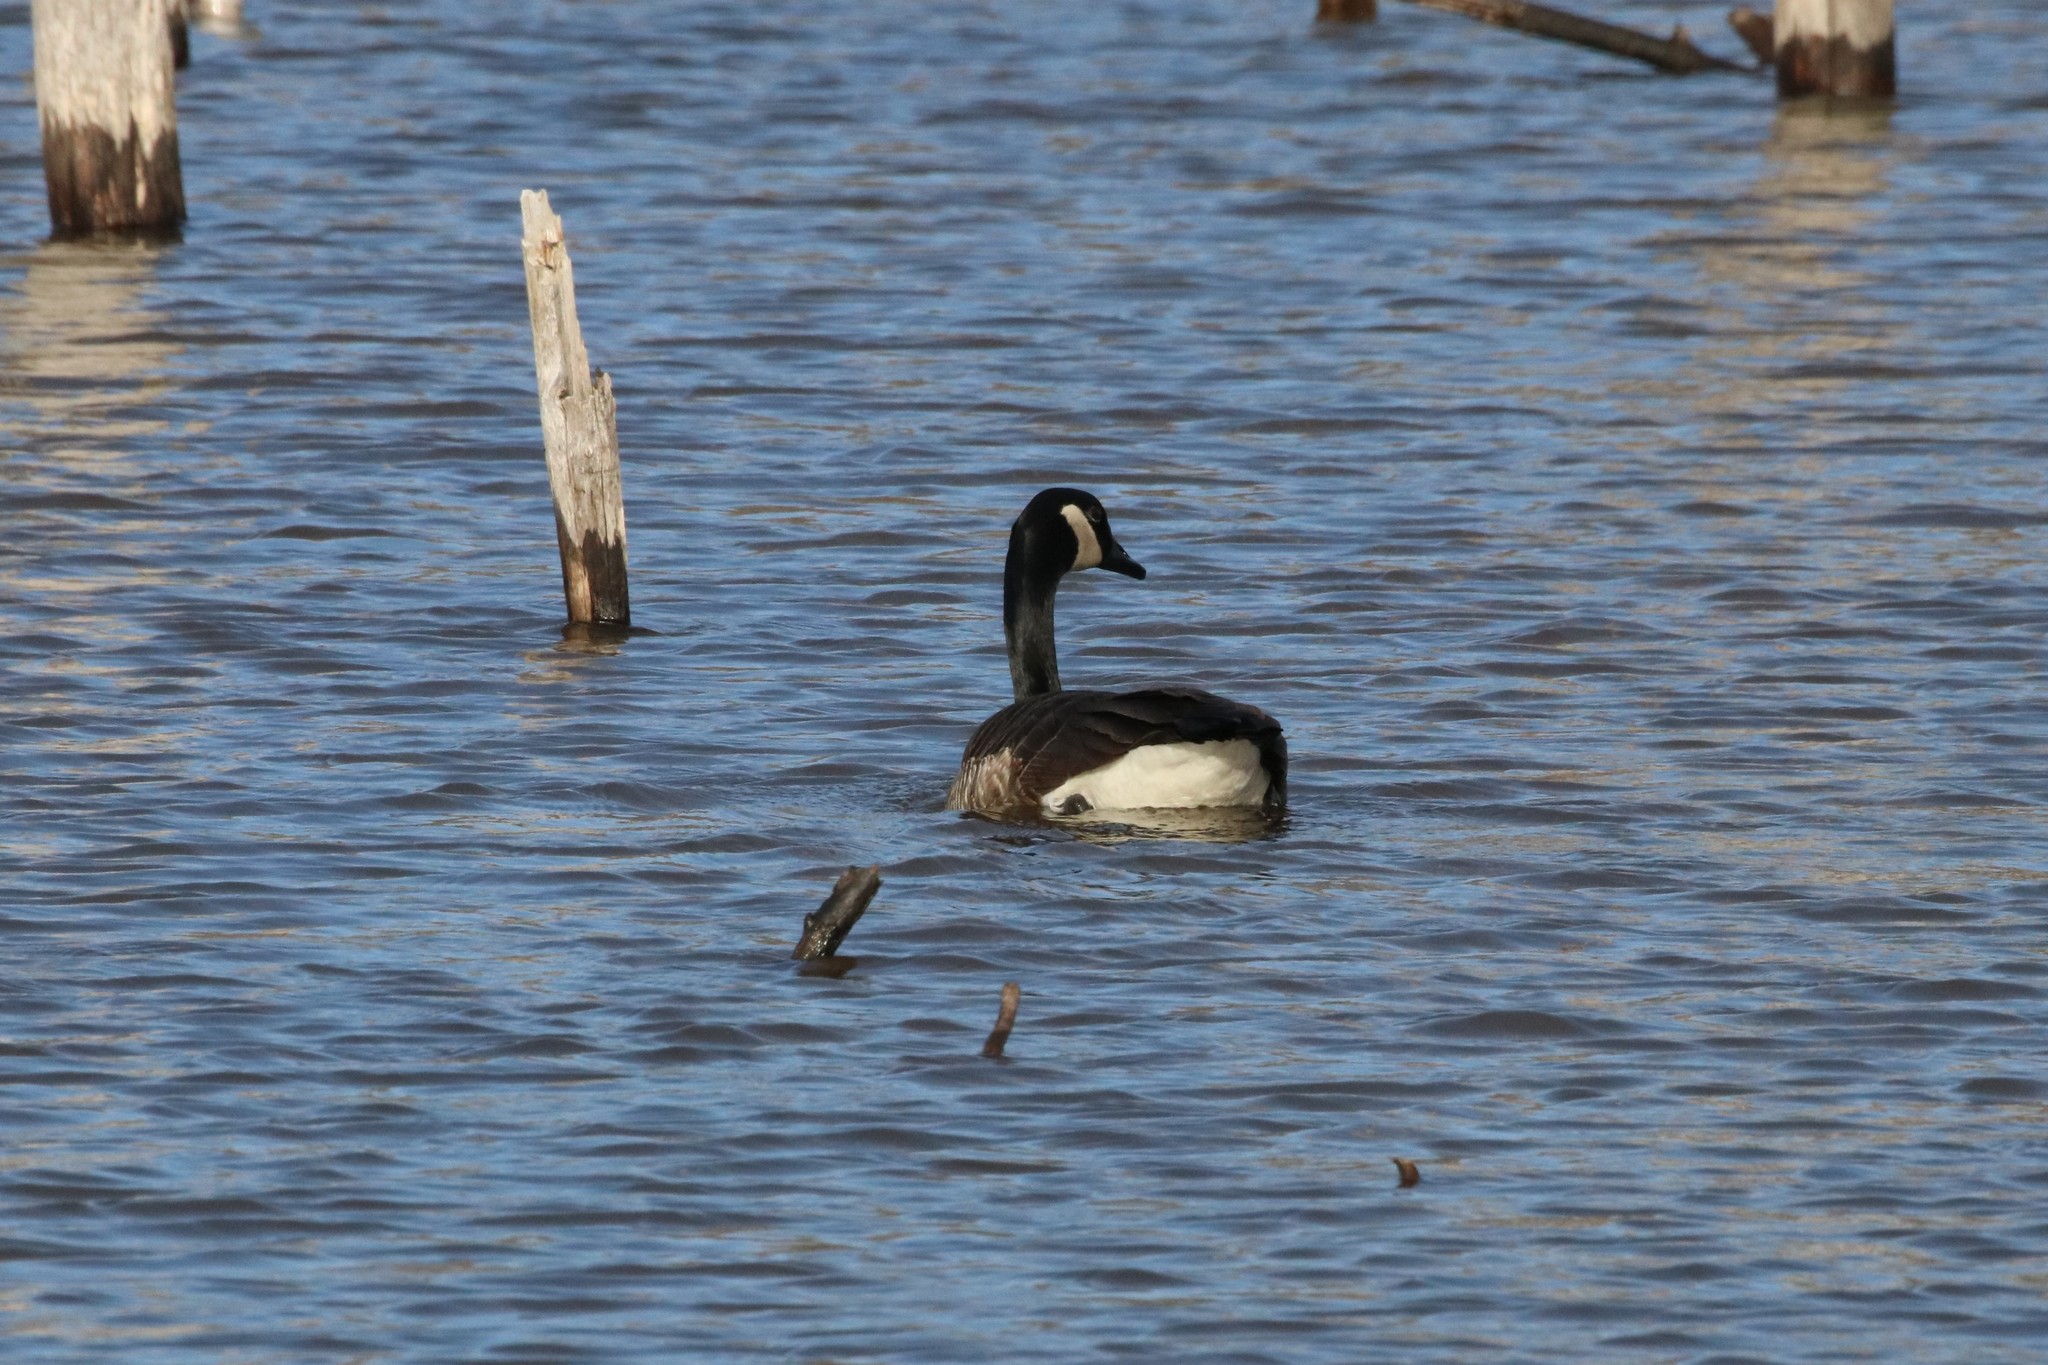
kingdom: Animalia
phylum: Chordata
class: Aves
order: Anseriformes
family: Anatidae
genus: Branta
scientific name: Branta canadensis
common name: Canada goose
